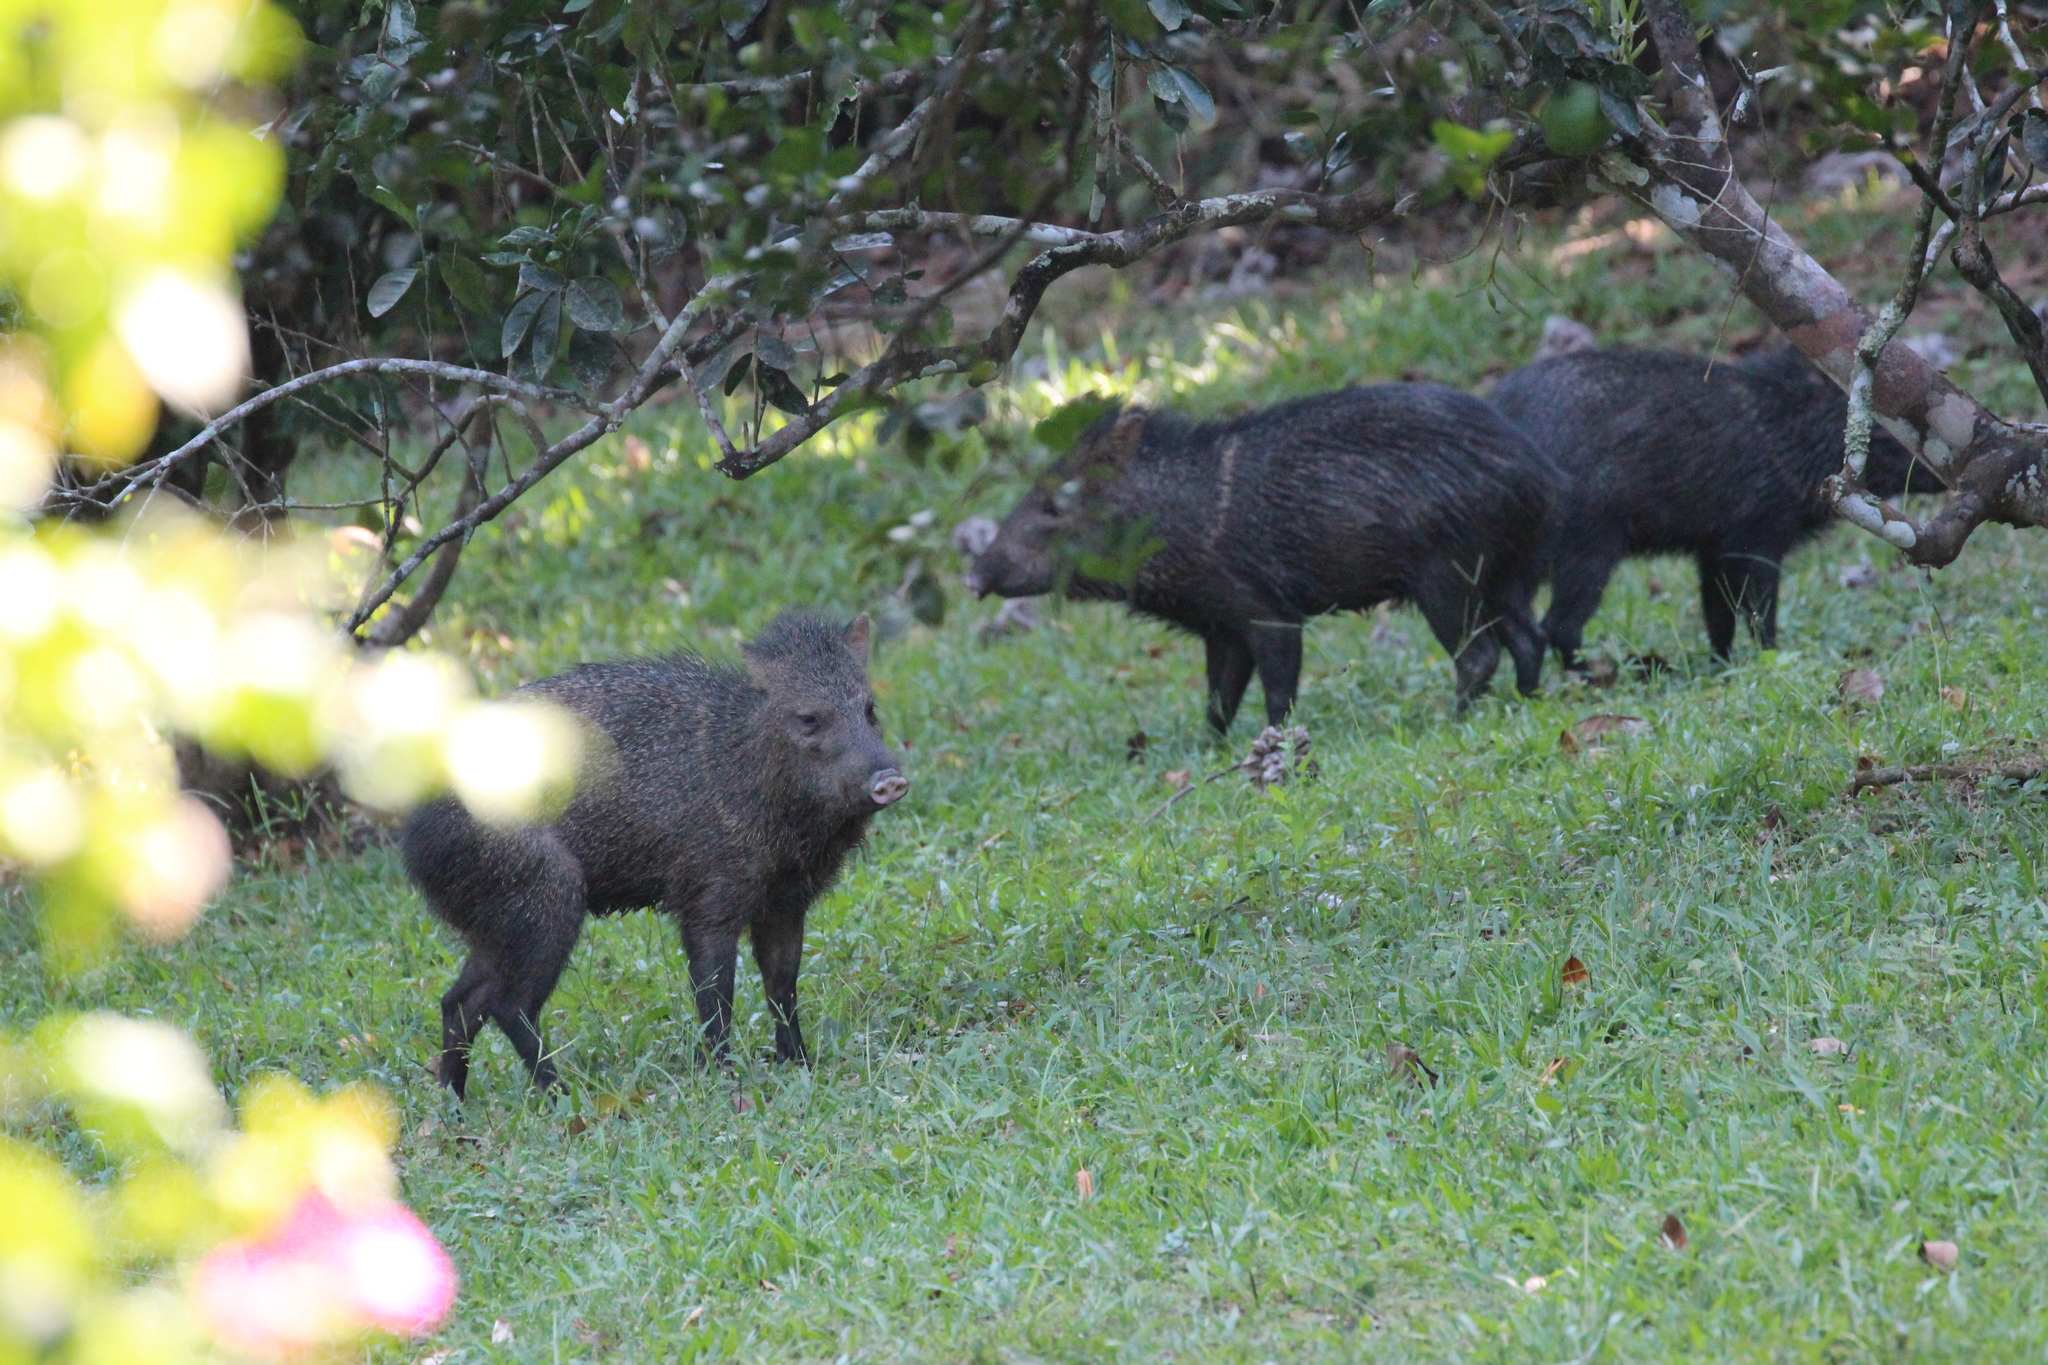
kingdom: Animalia
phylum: Chordata
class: Mammalia
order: Artiodactyla
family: Tayassuidae
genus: Pecari
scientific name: Pecari tajacu
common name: Collared peccary
